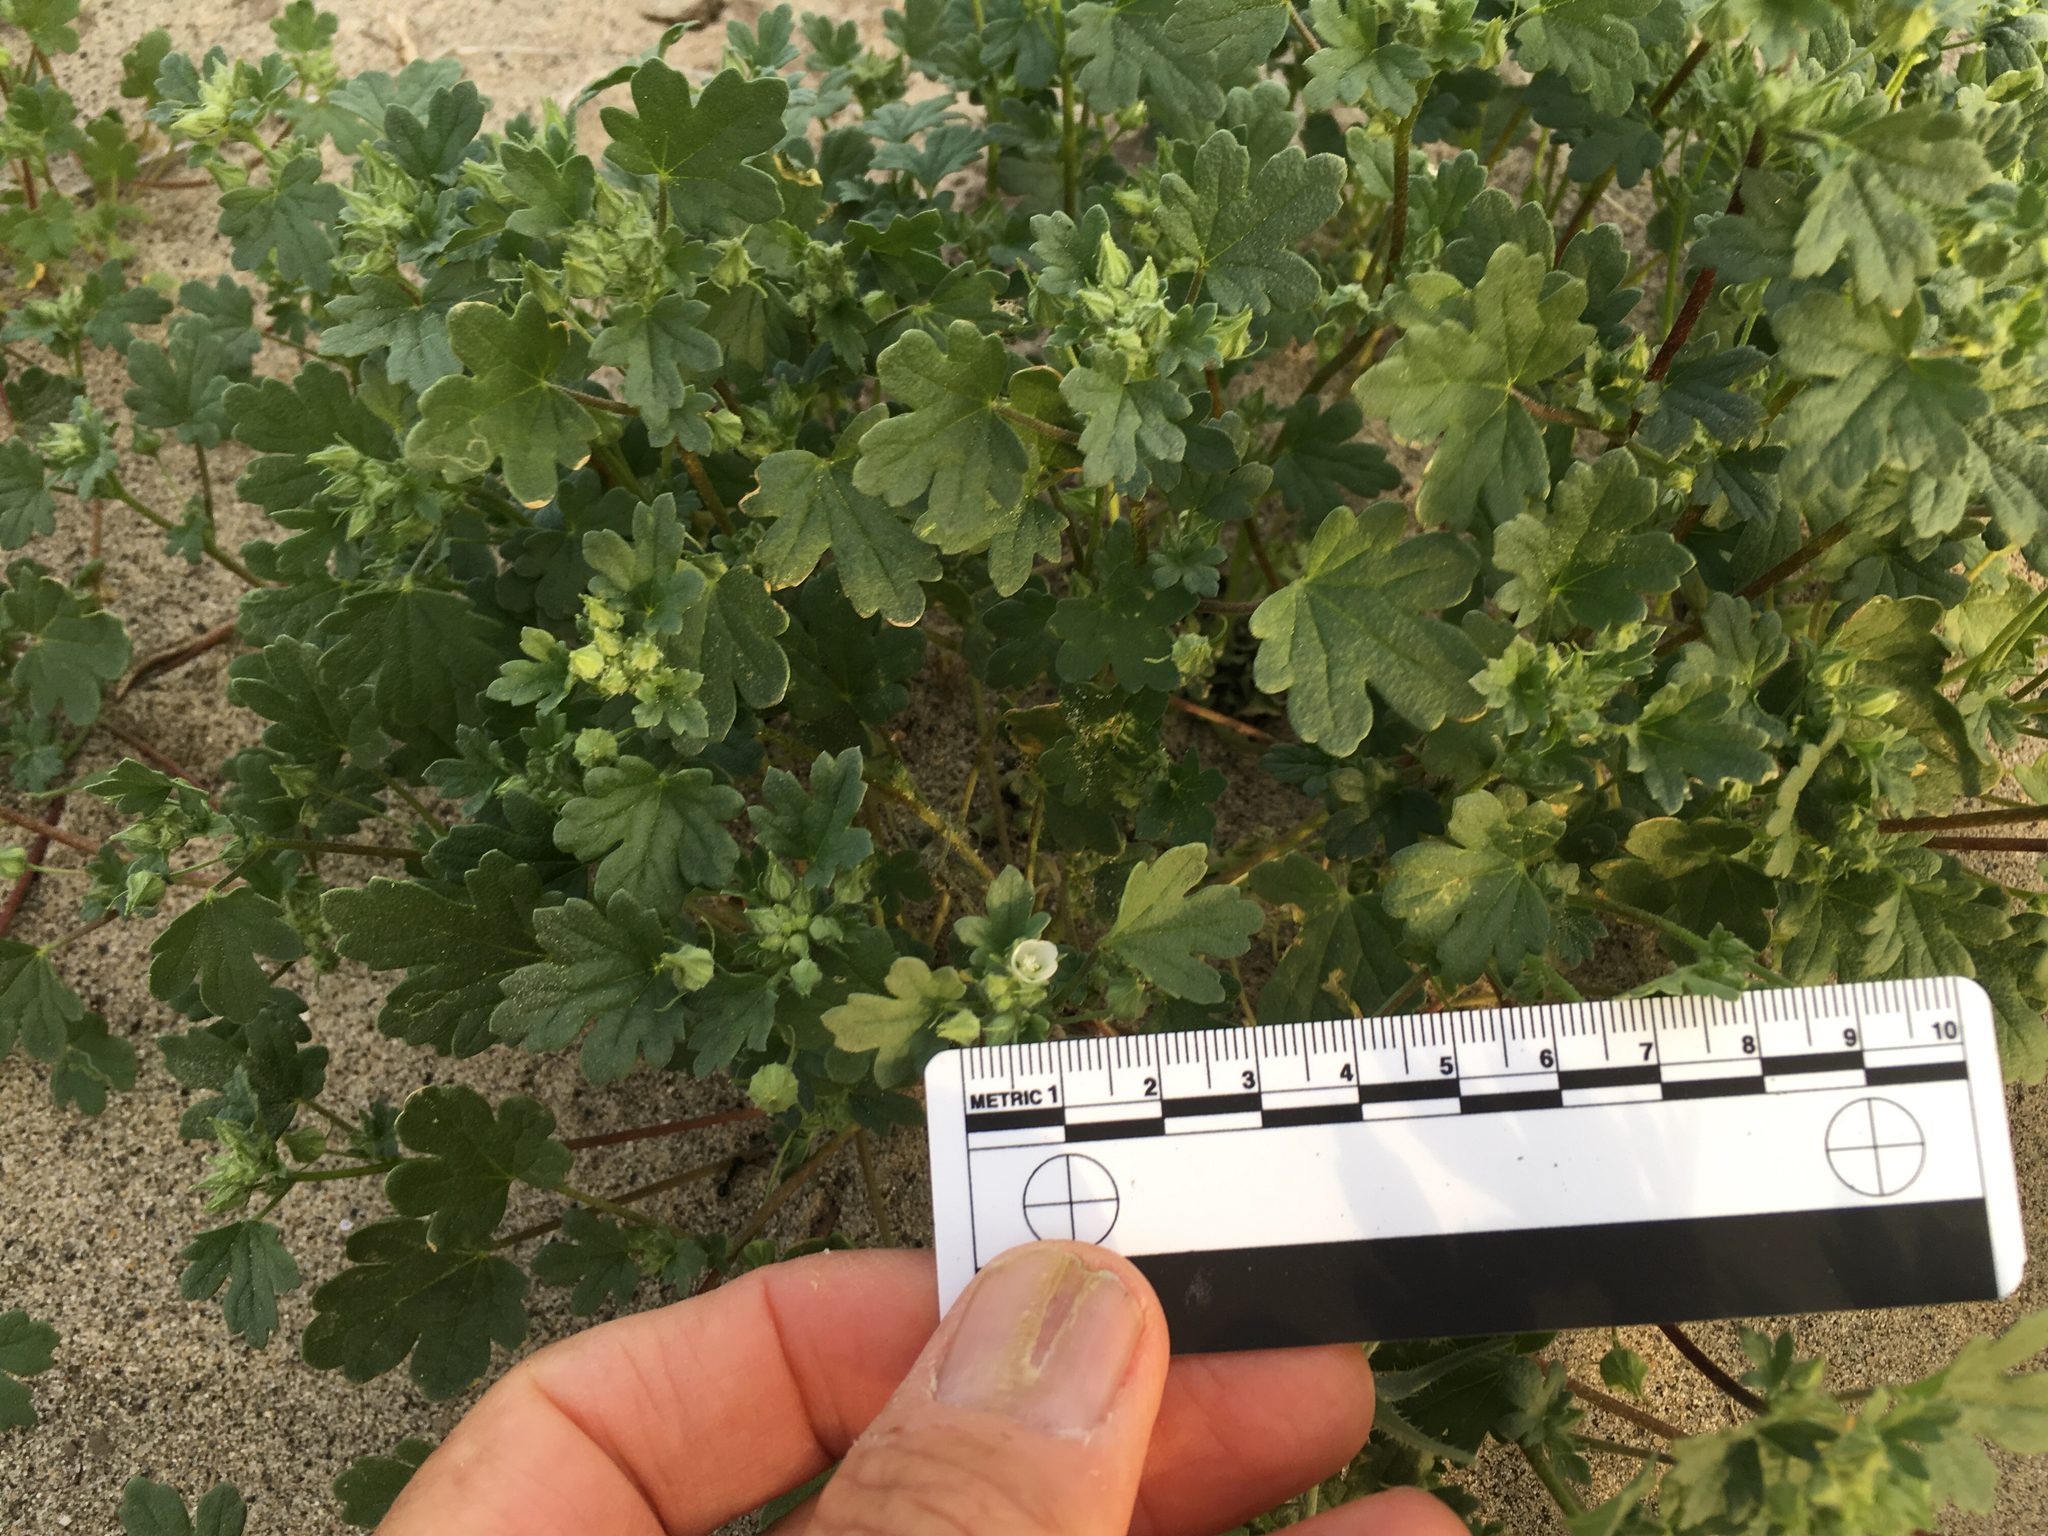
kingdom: Plantae
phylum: Tracheophyta
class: Magnoliopsida
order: Malvales
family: Malvaceae
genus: Eremalche
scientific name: Eremalche exilis
